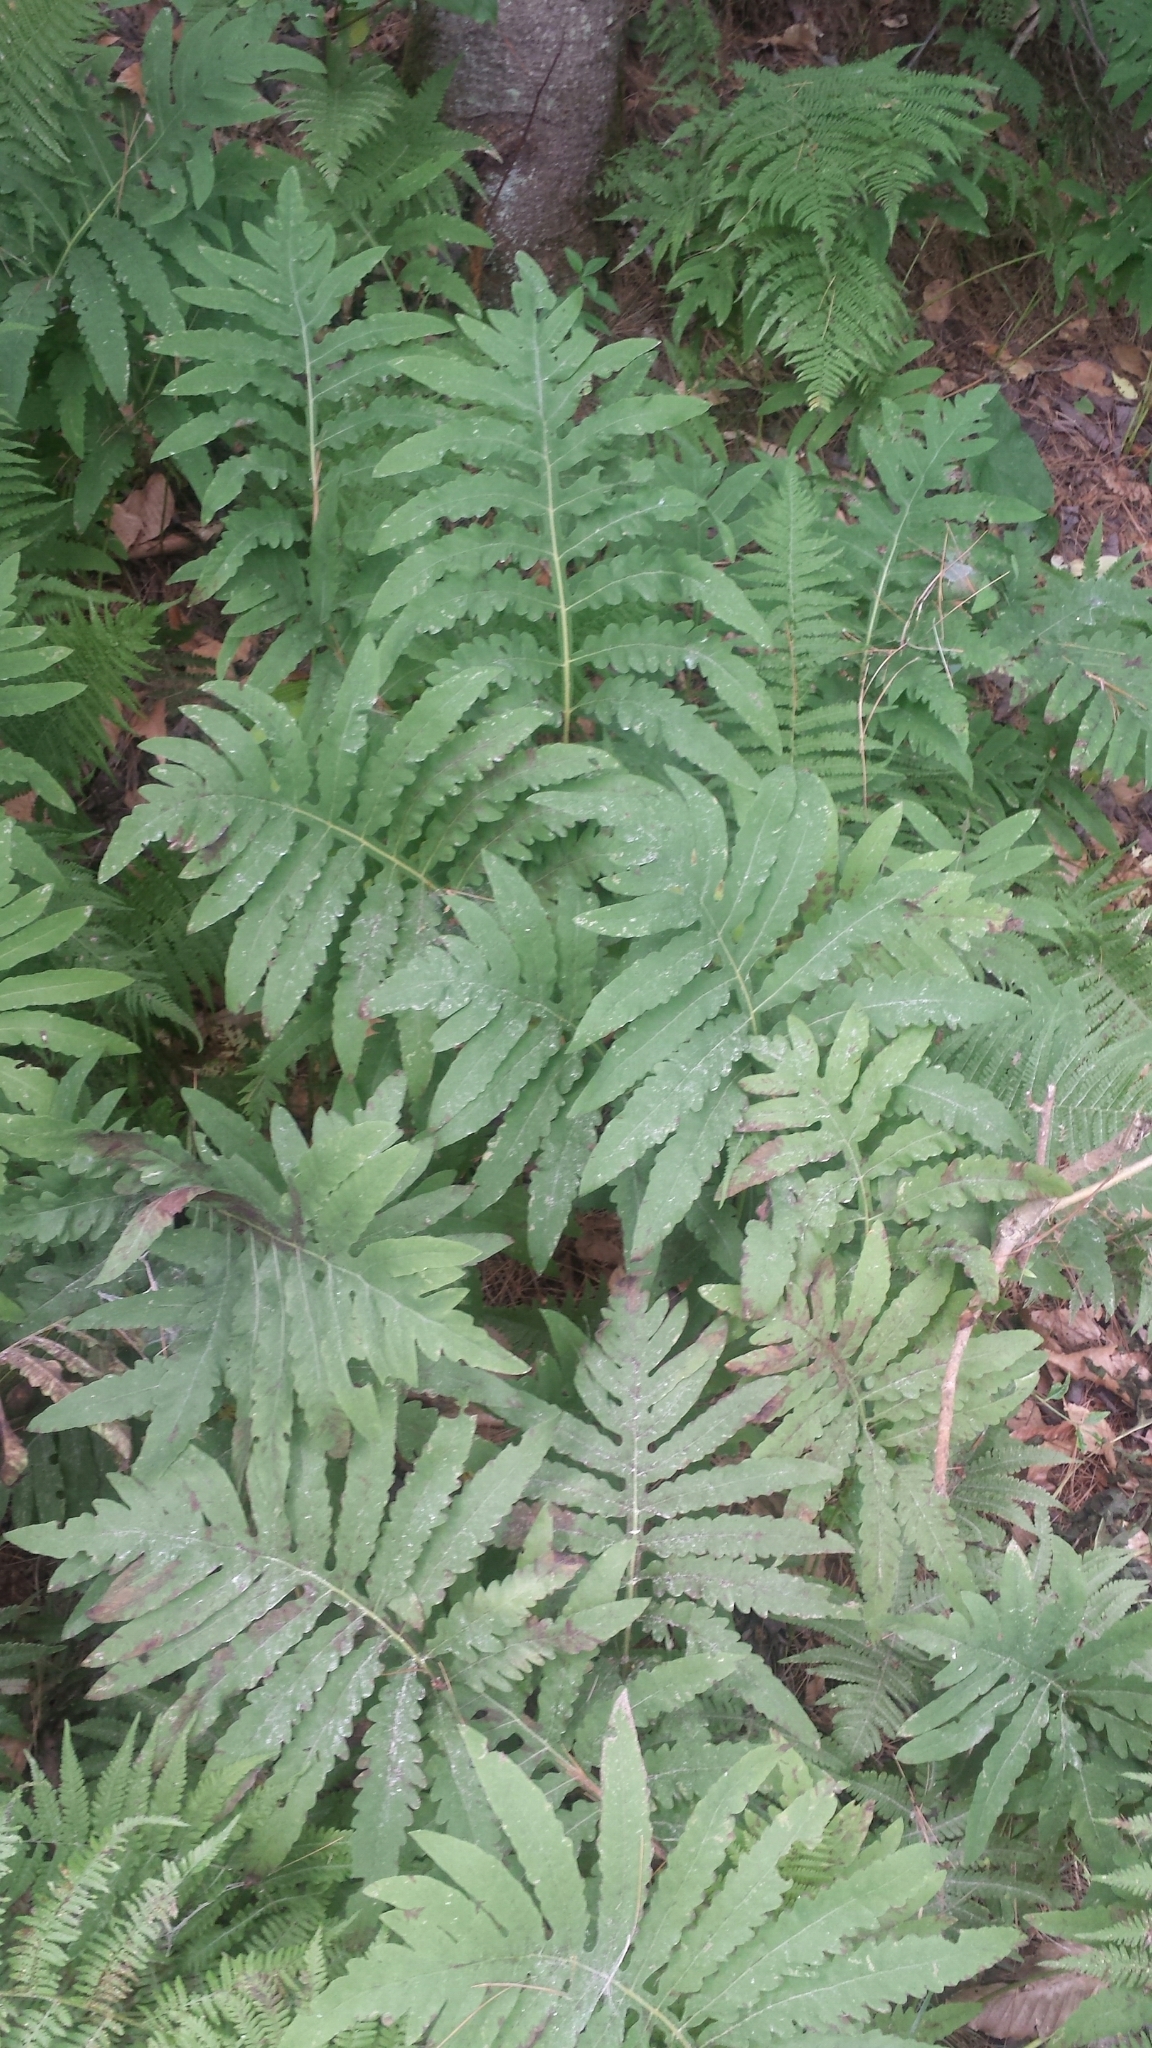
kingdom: Plantae
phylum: Tracheophyta
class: Polypodiopsida
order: Polypodiales
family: Onocleaceae
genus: Onoclea
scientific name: Onoclea sensibilis
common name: Sensitive fern
